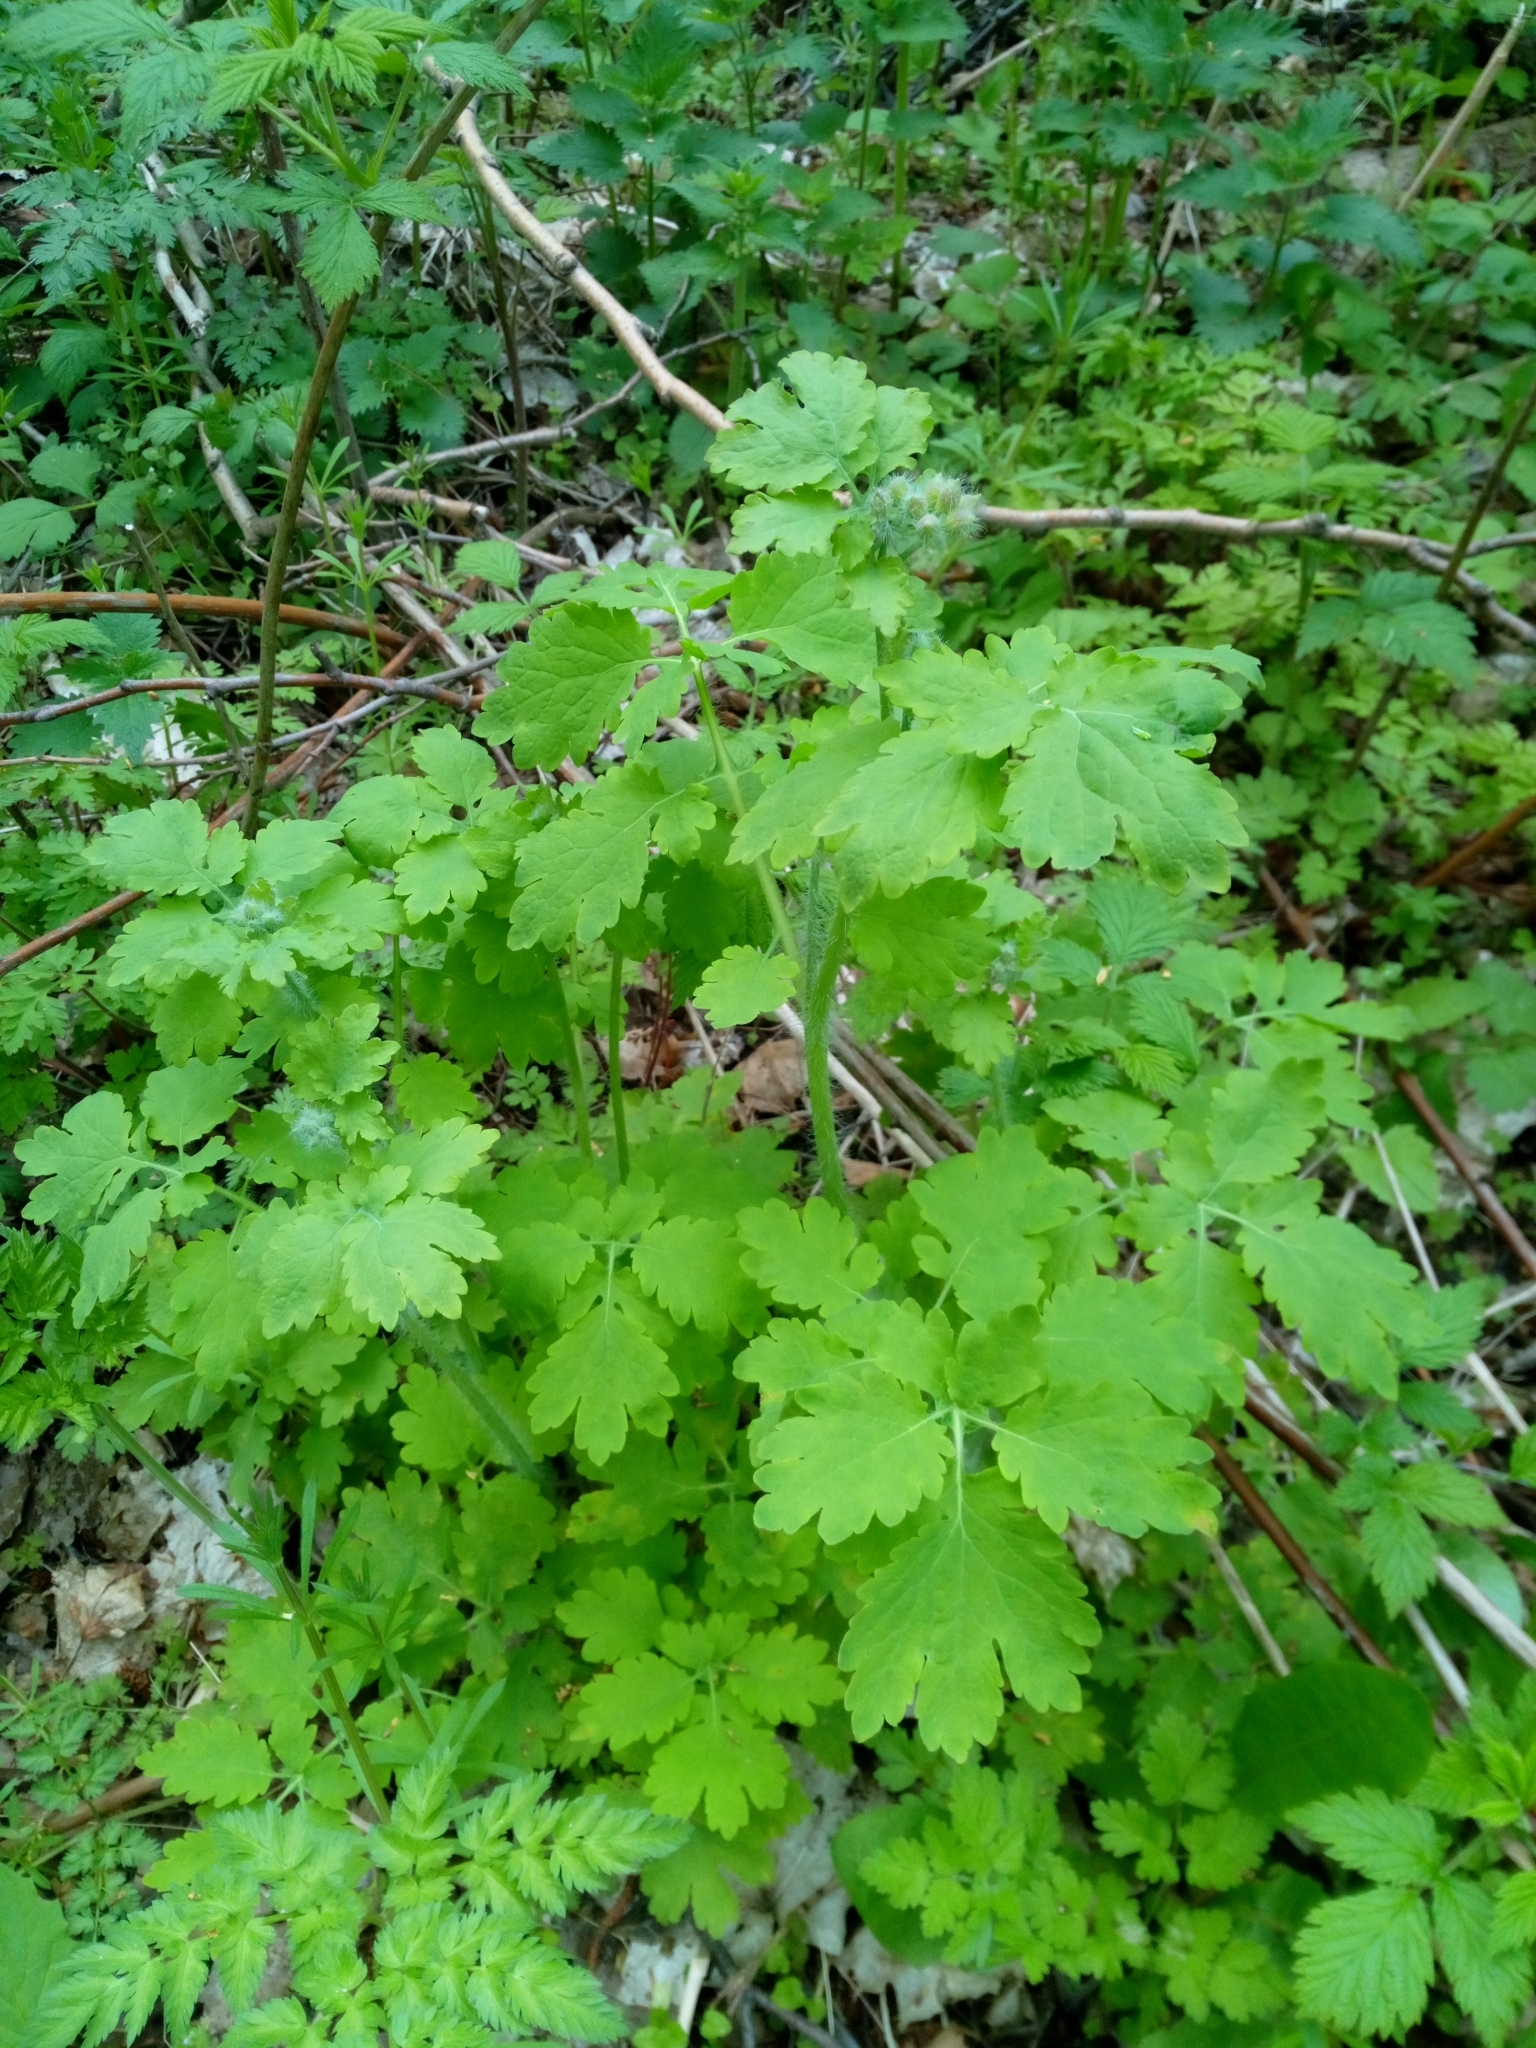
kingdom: Plantae
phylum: Tracheophyta
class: Magnoliopsida
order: Ranunculales
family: Papaveraceae
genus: Chelidonium
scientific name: Chelidonium majus
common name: Greater celandine
